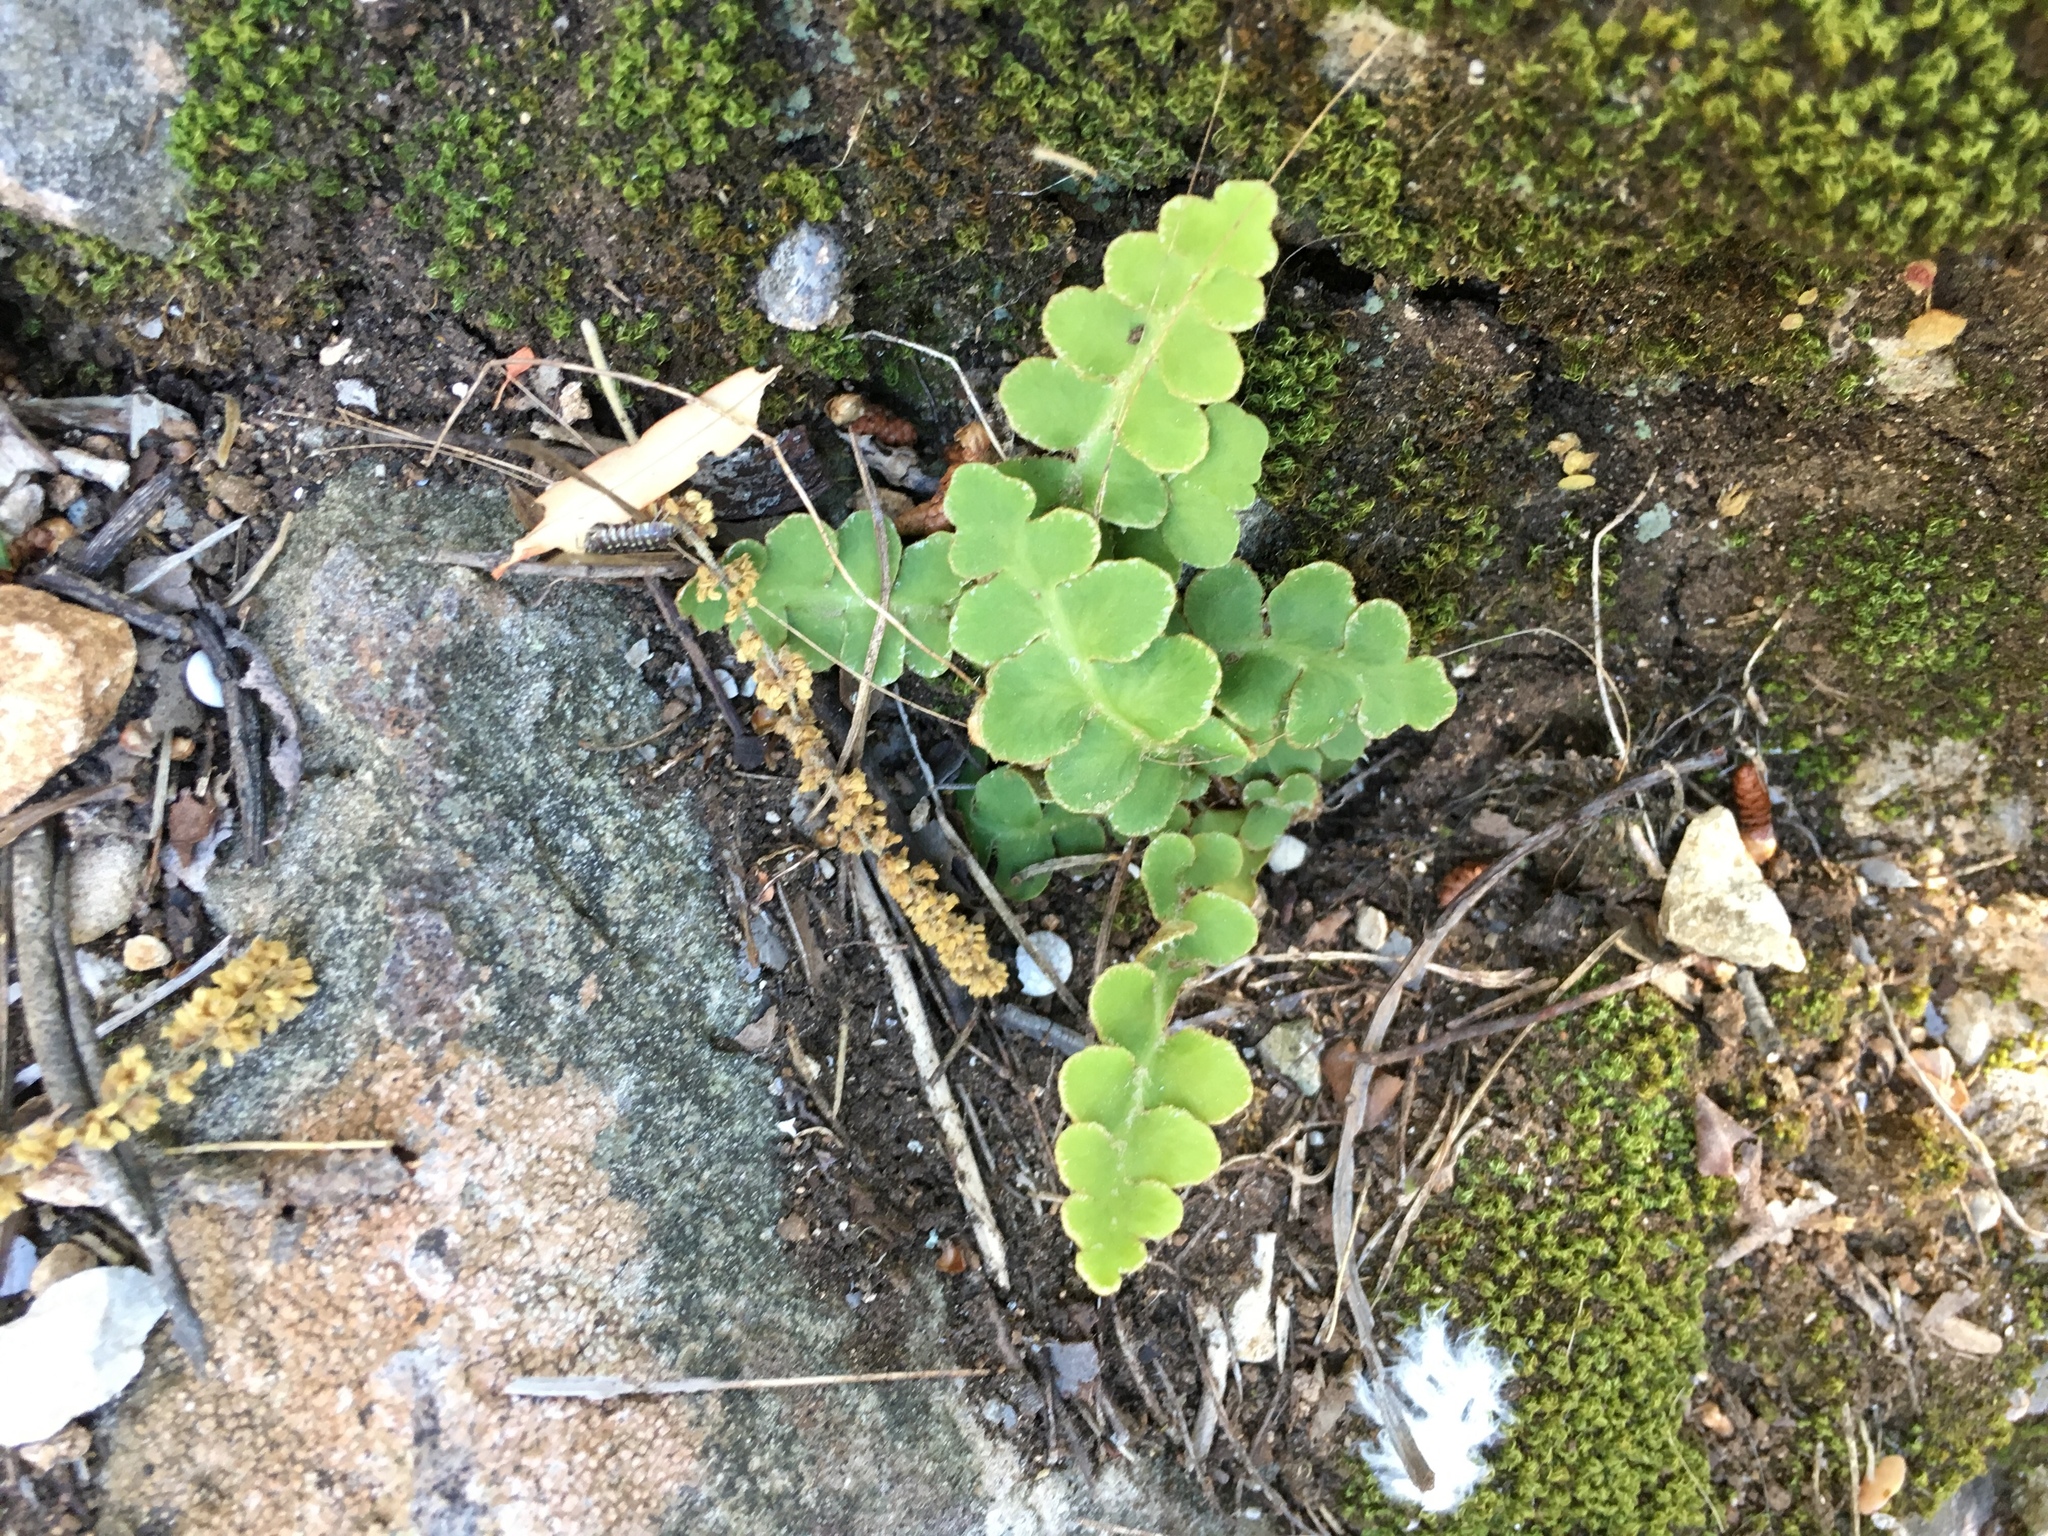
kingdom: Plantae
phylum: Tracheophyta
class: Polypodiopsida
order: Polypodiales
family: Aspleniaceae
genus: Asplenium
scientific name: Asplenium ceterach
